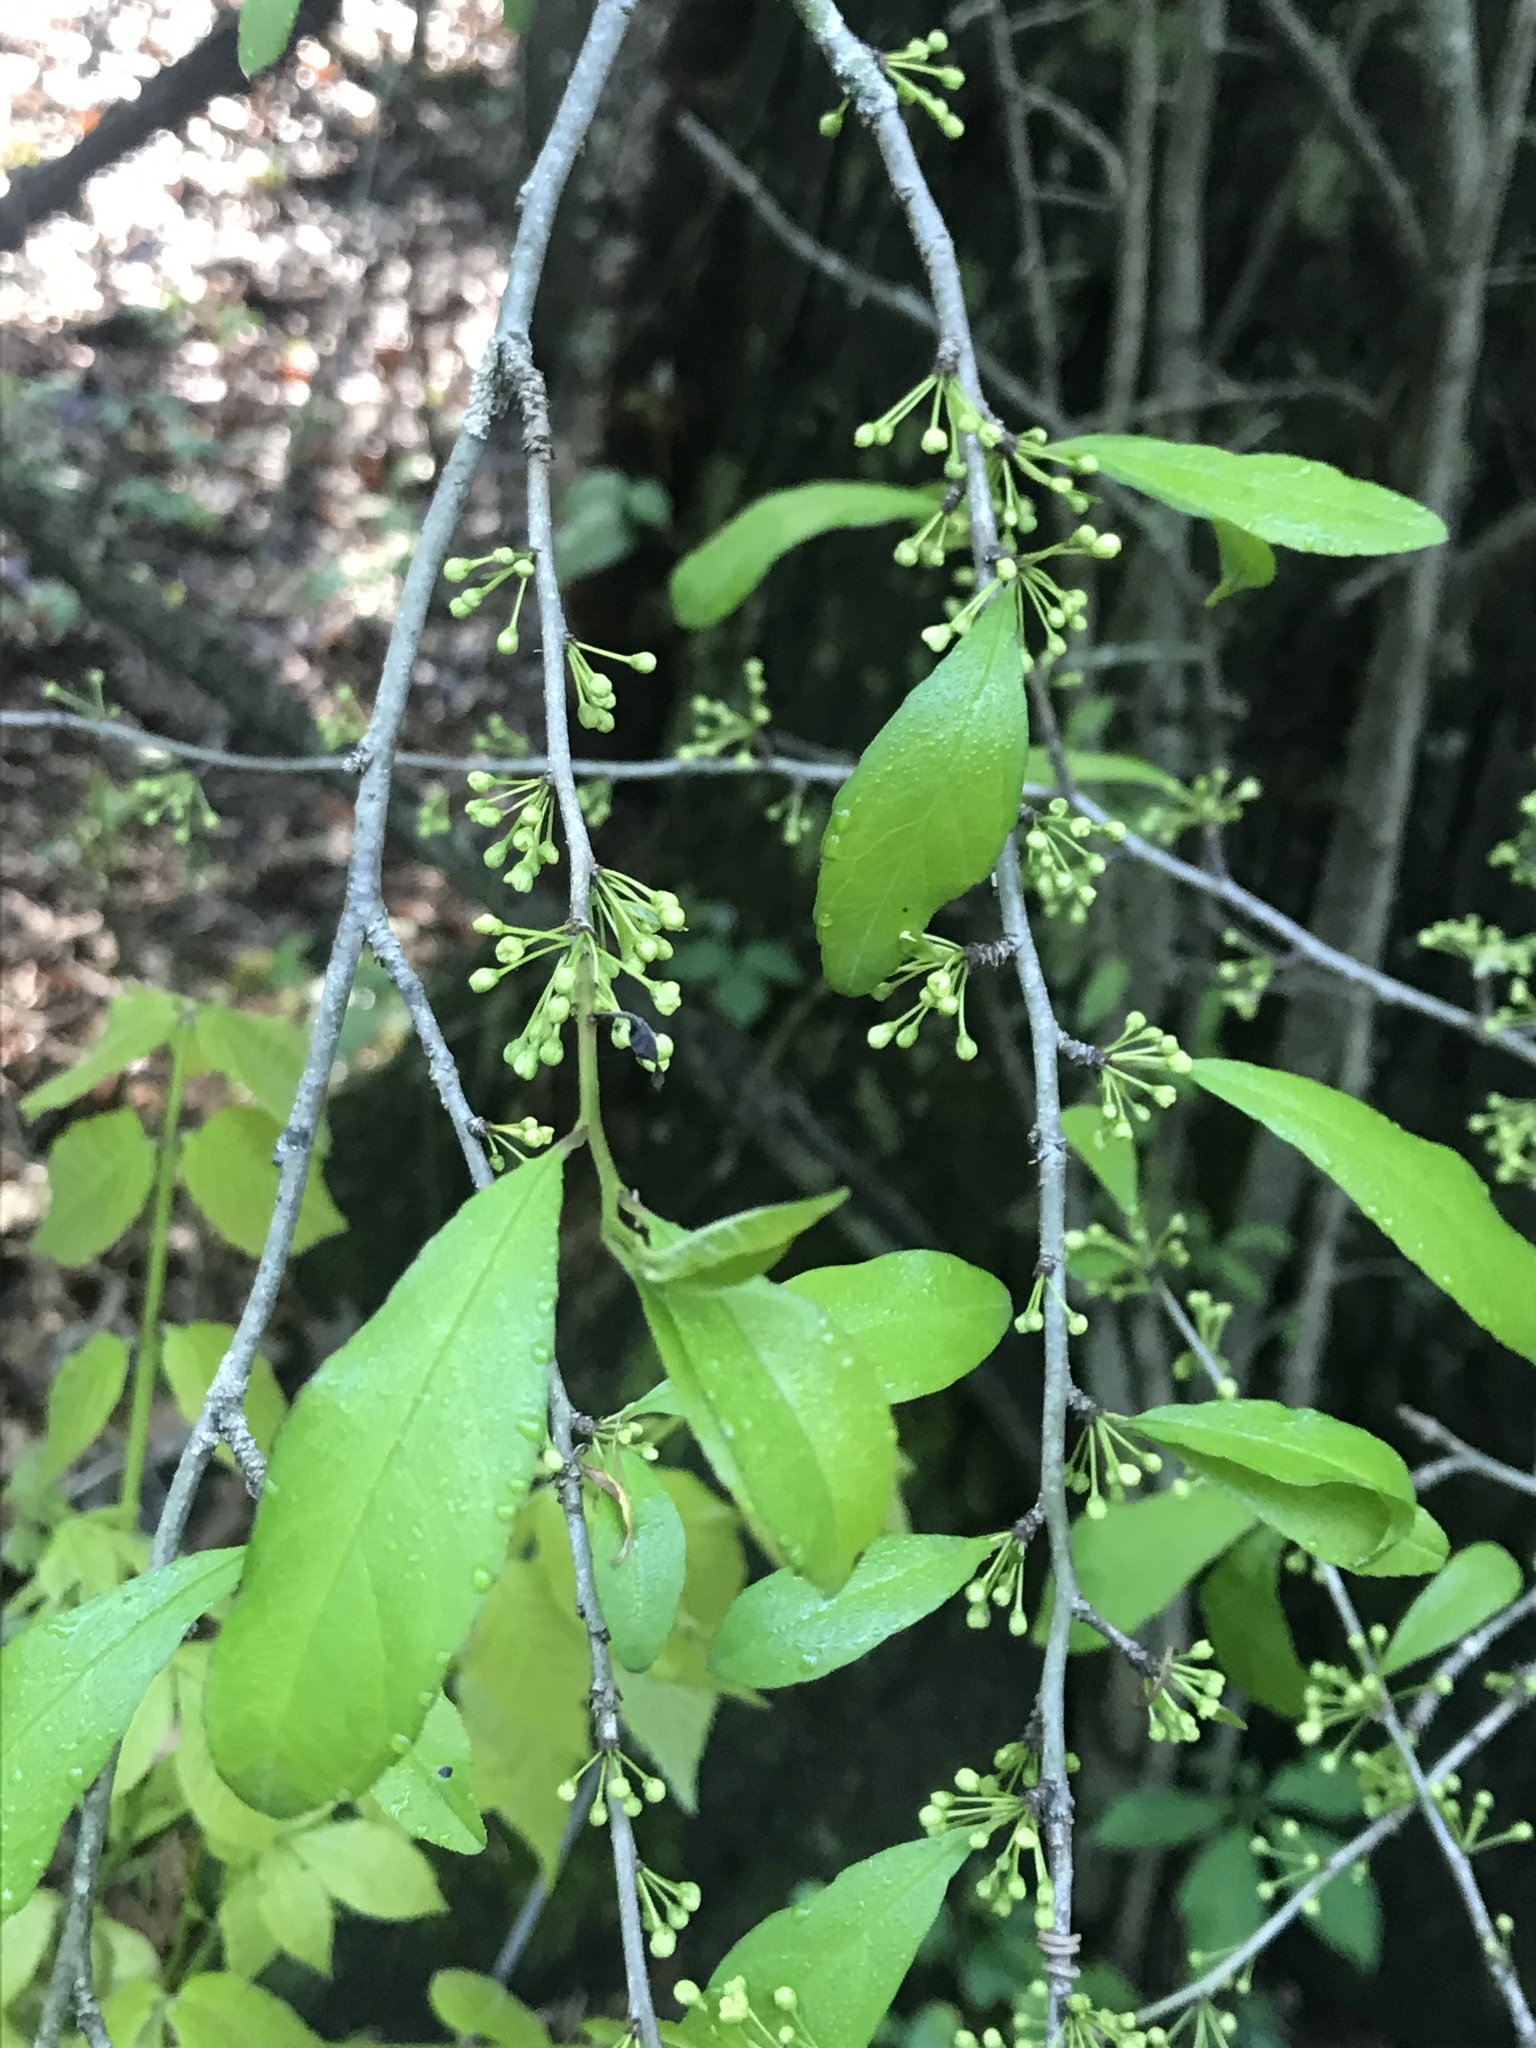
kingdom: Plantae
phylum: Tracheophyta
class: Magnoliopsida
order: Aquifoliales
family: Aquifoliaceae
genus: Ilex
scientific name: Ilex decidua
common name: Possum-haw
